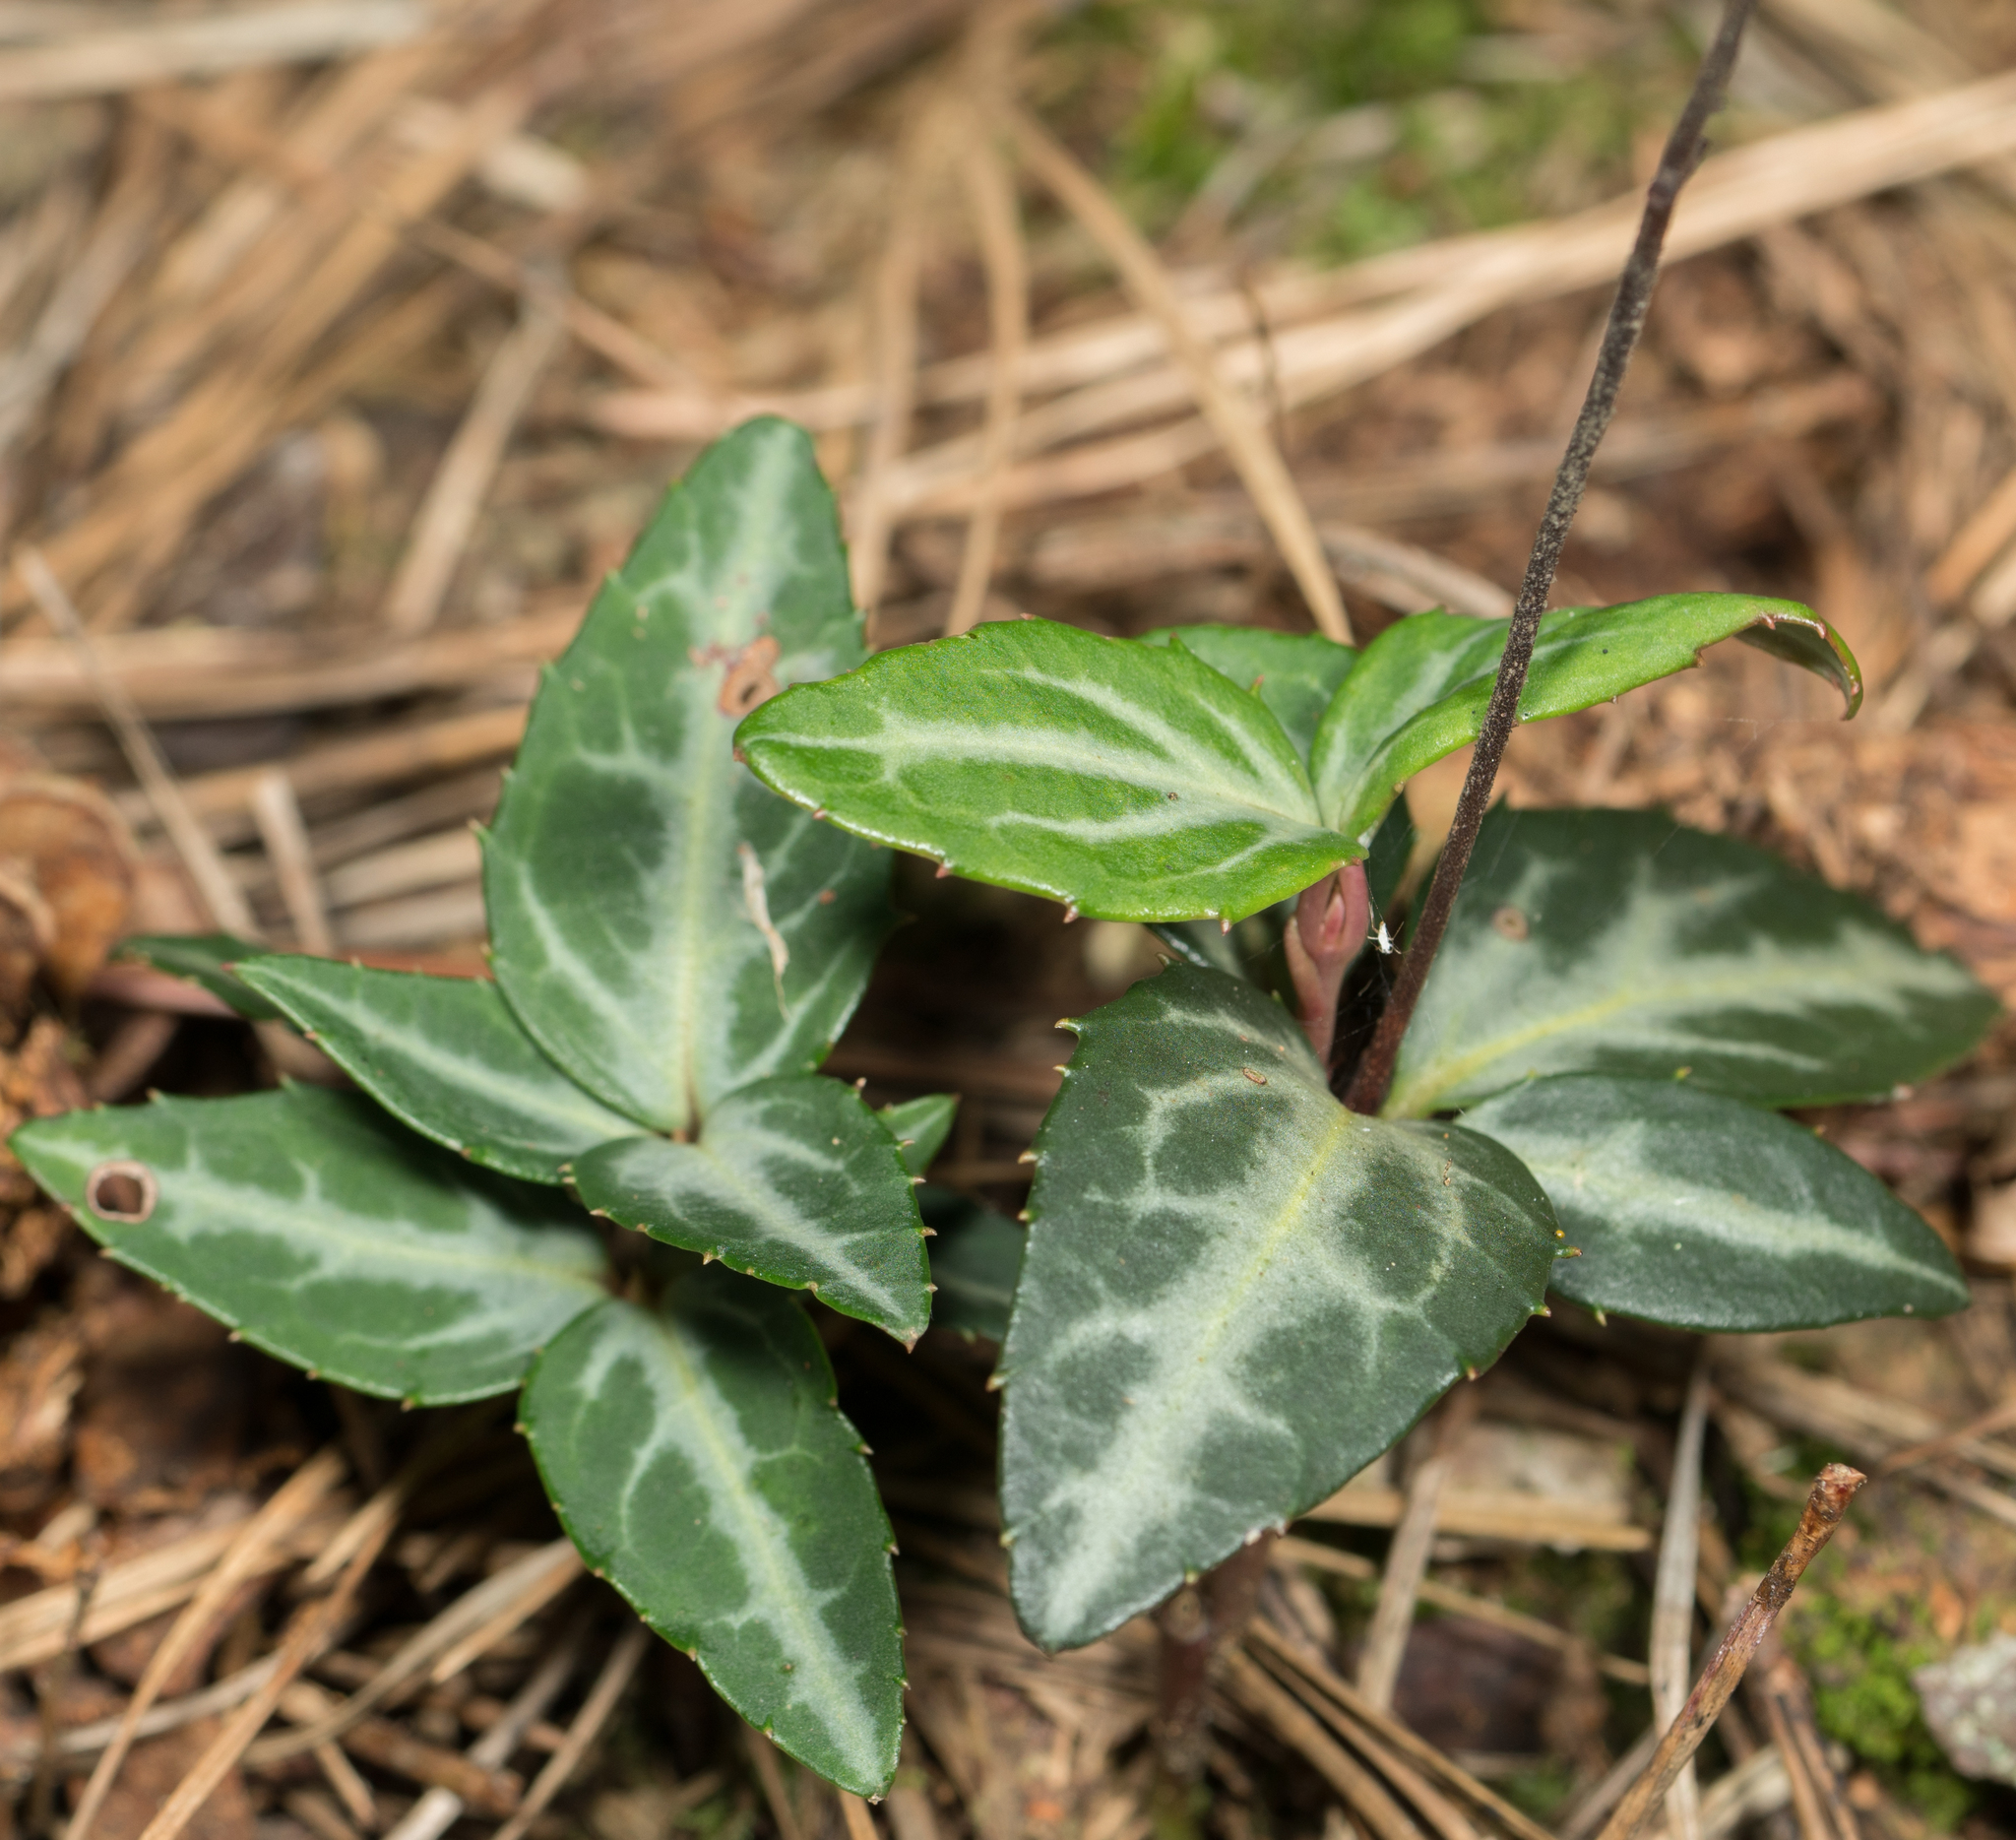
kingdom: Plantae
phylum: Tracheophyta
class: Magnoliopsida
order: Ericales
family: Ericaceae
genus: Chimaphila
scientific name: Chimaphila maculata
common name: Spotted pipsissewa
